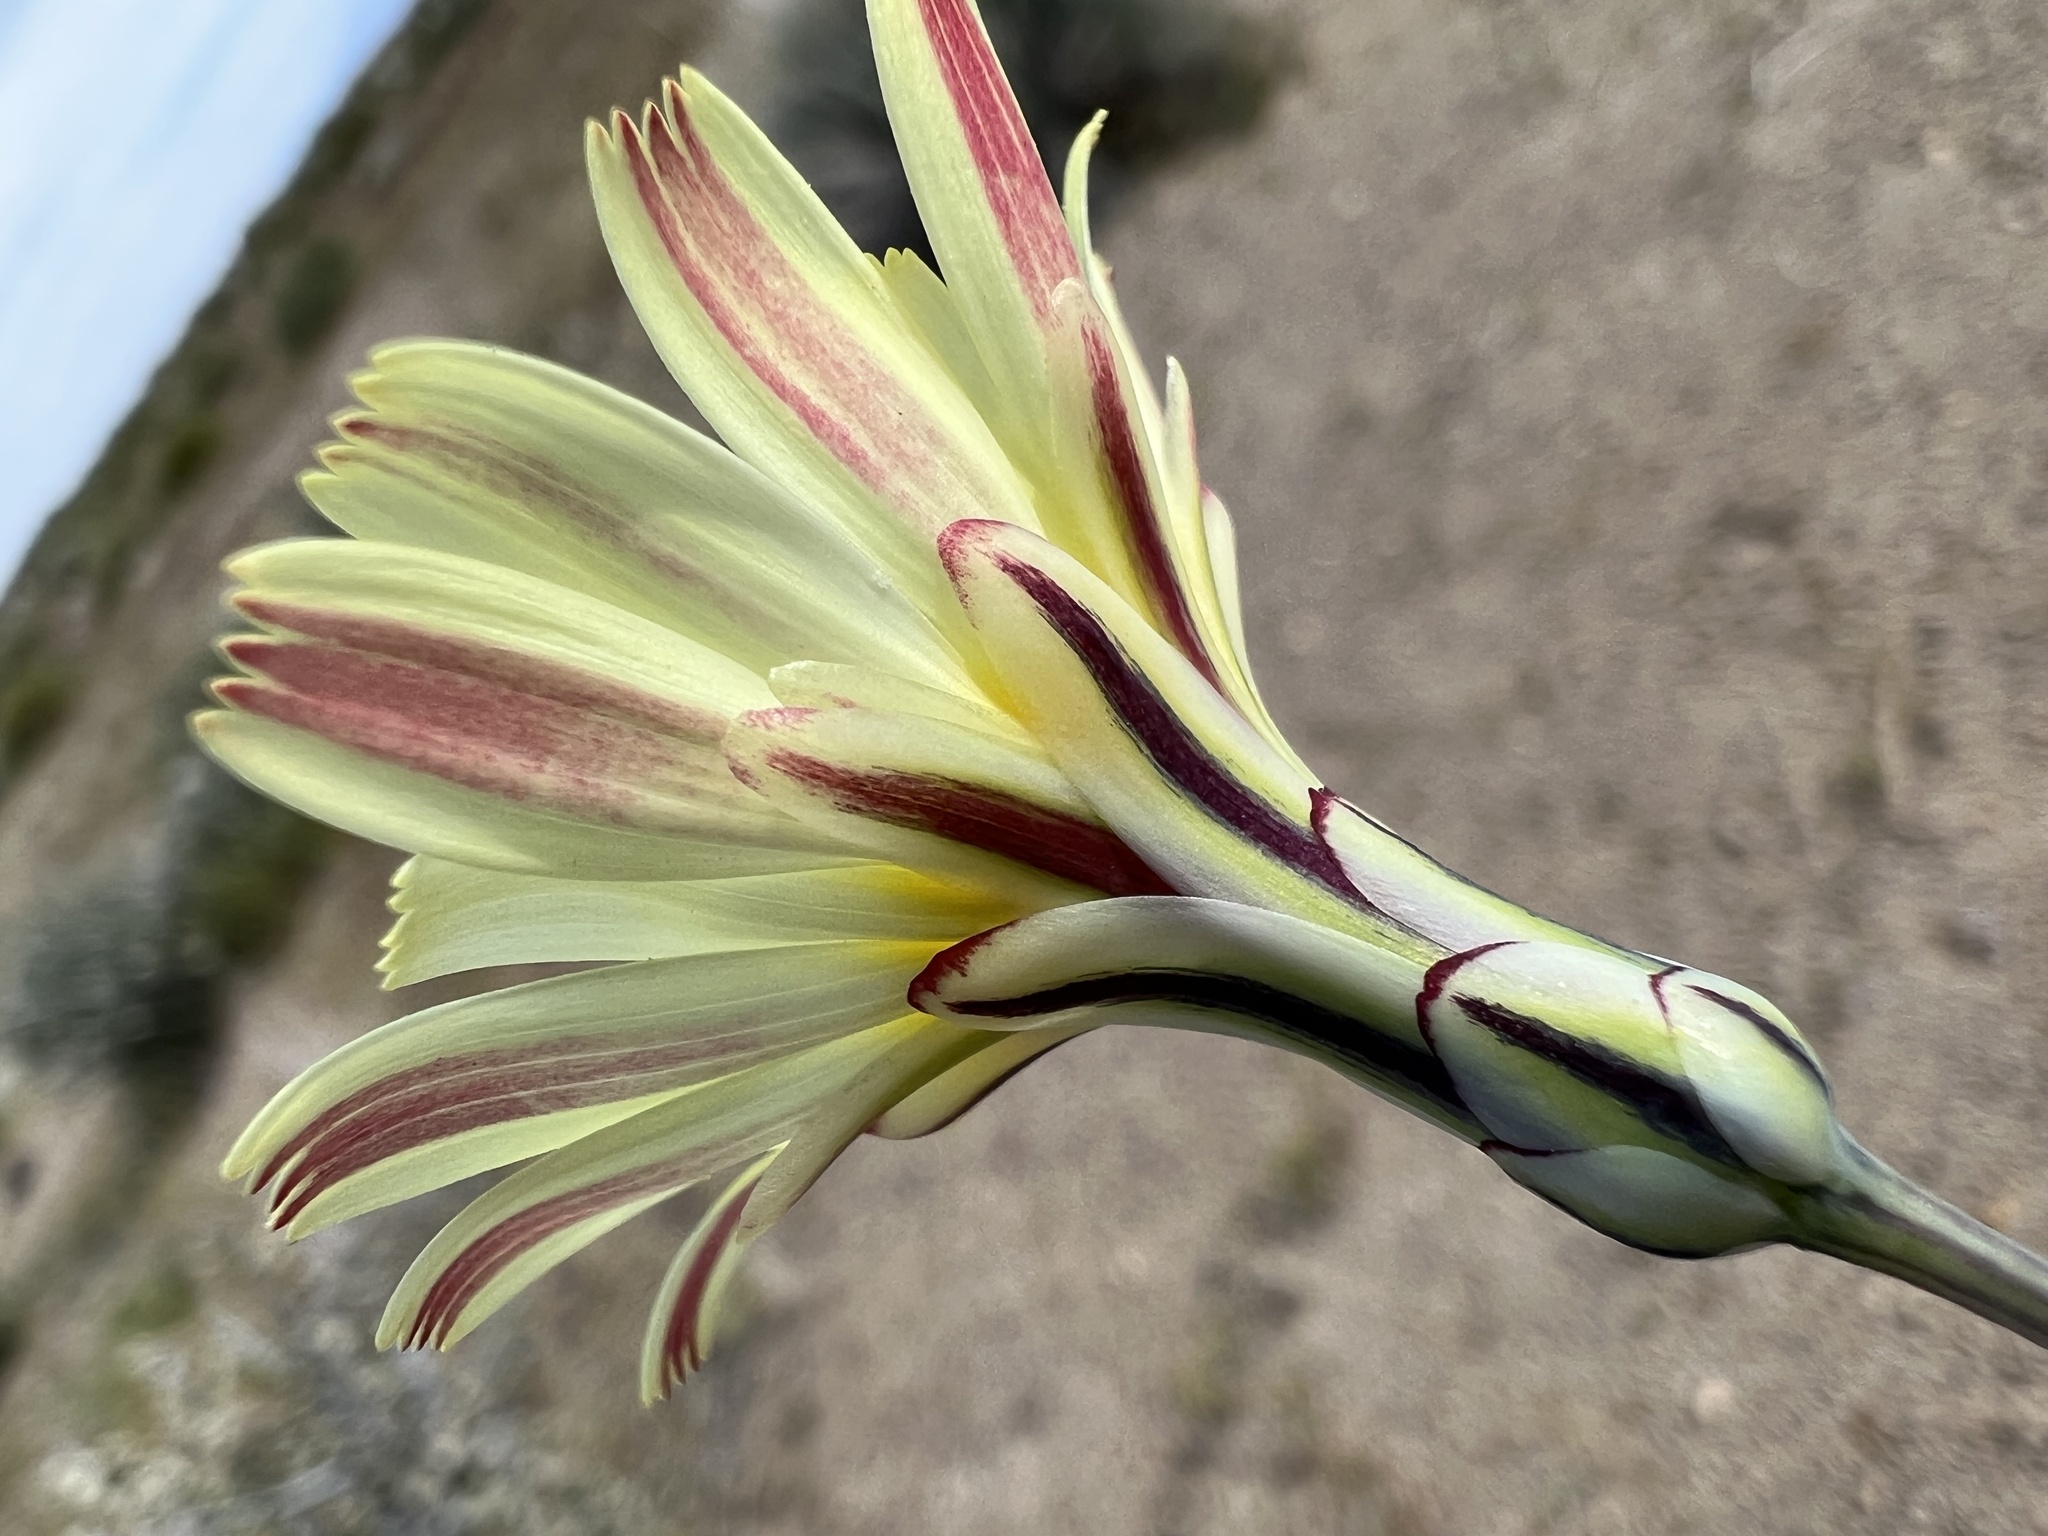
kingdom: Plantae
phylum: Tracheophyta
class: Magnoliopsida
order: Asterales
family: Asteraceae
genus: Anisocoma
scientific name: Anisocoma acaulis
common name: Scalebud
